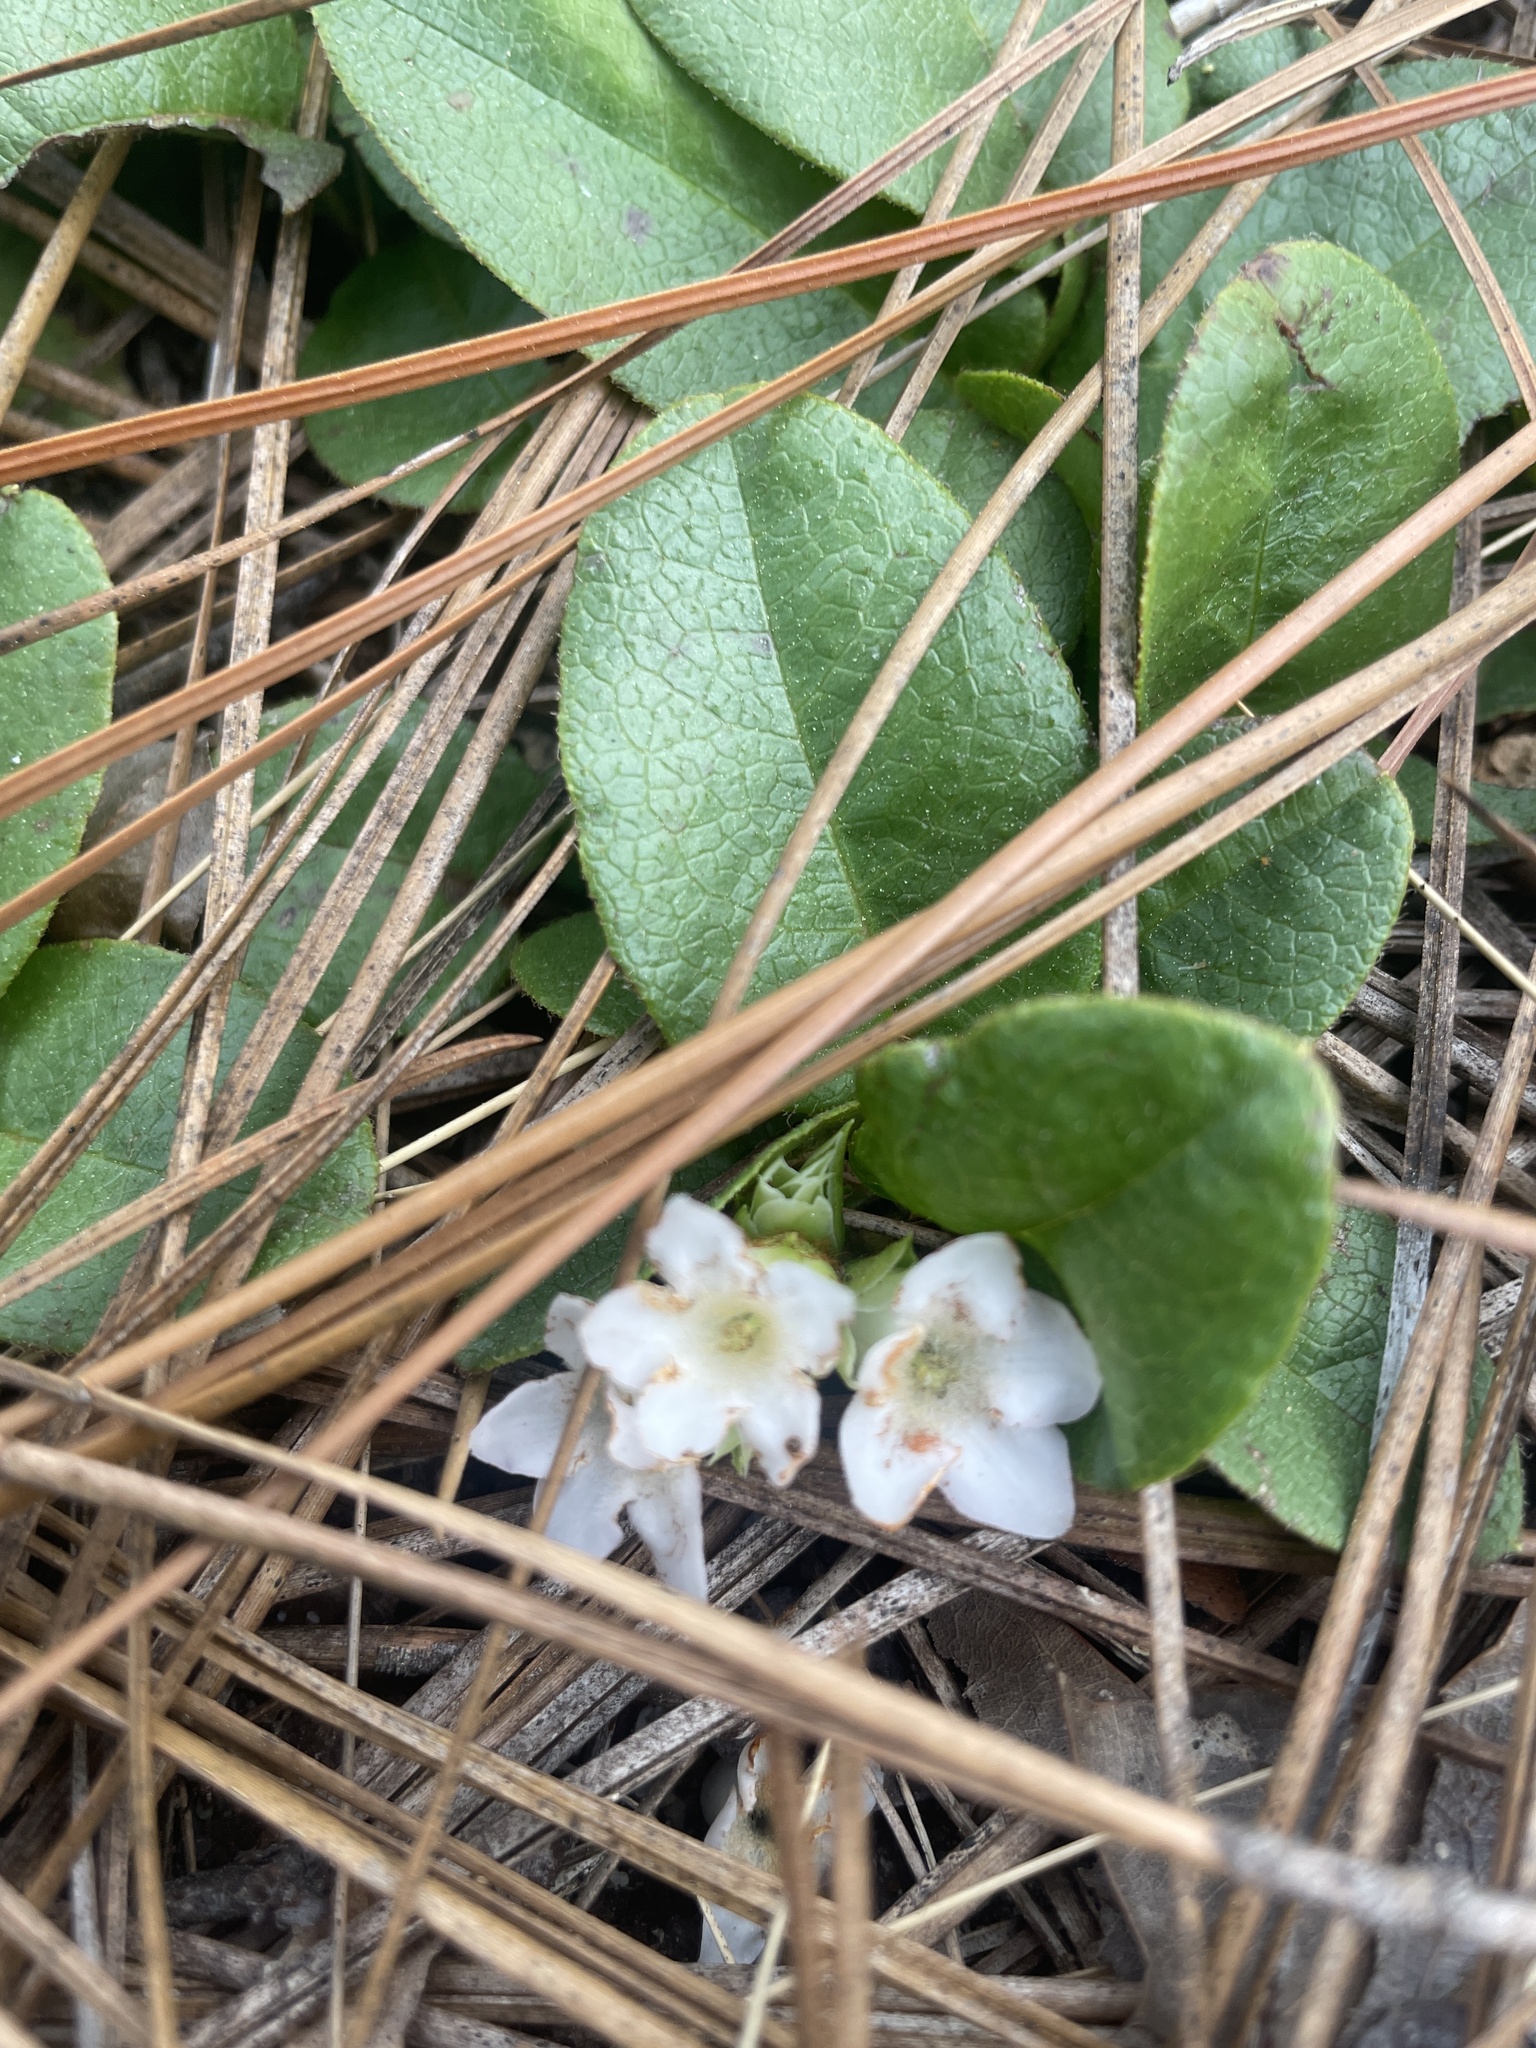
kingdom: Plantae
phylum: Tracheophyta
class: Magnoliopsida
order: Ericales
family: Ericaceae
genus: Epigaea
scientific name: Epigaea repens
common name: Gravelroot
